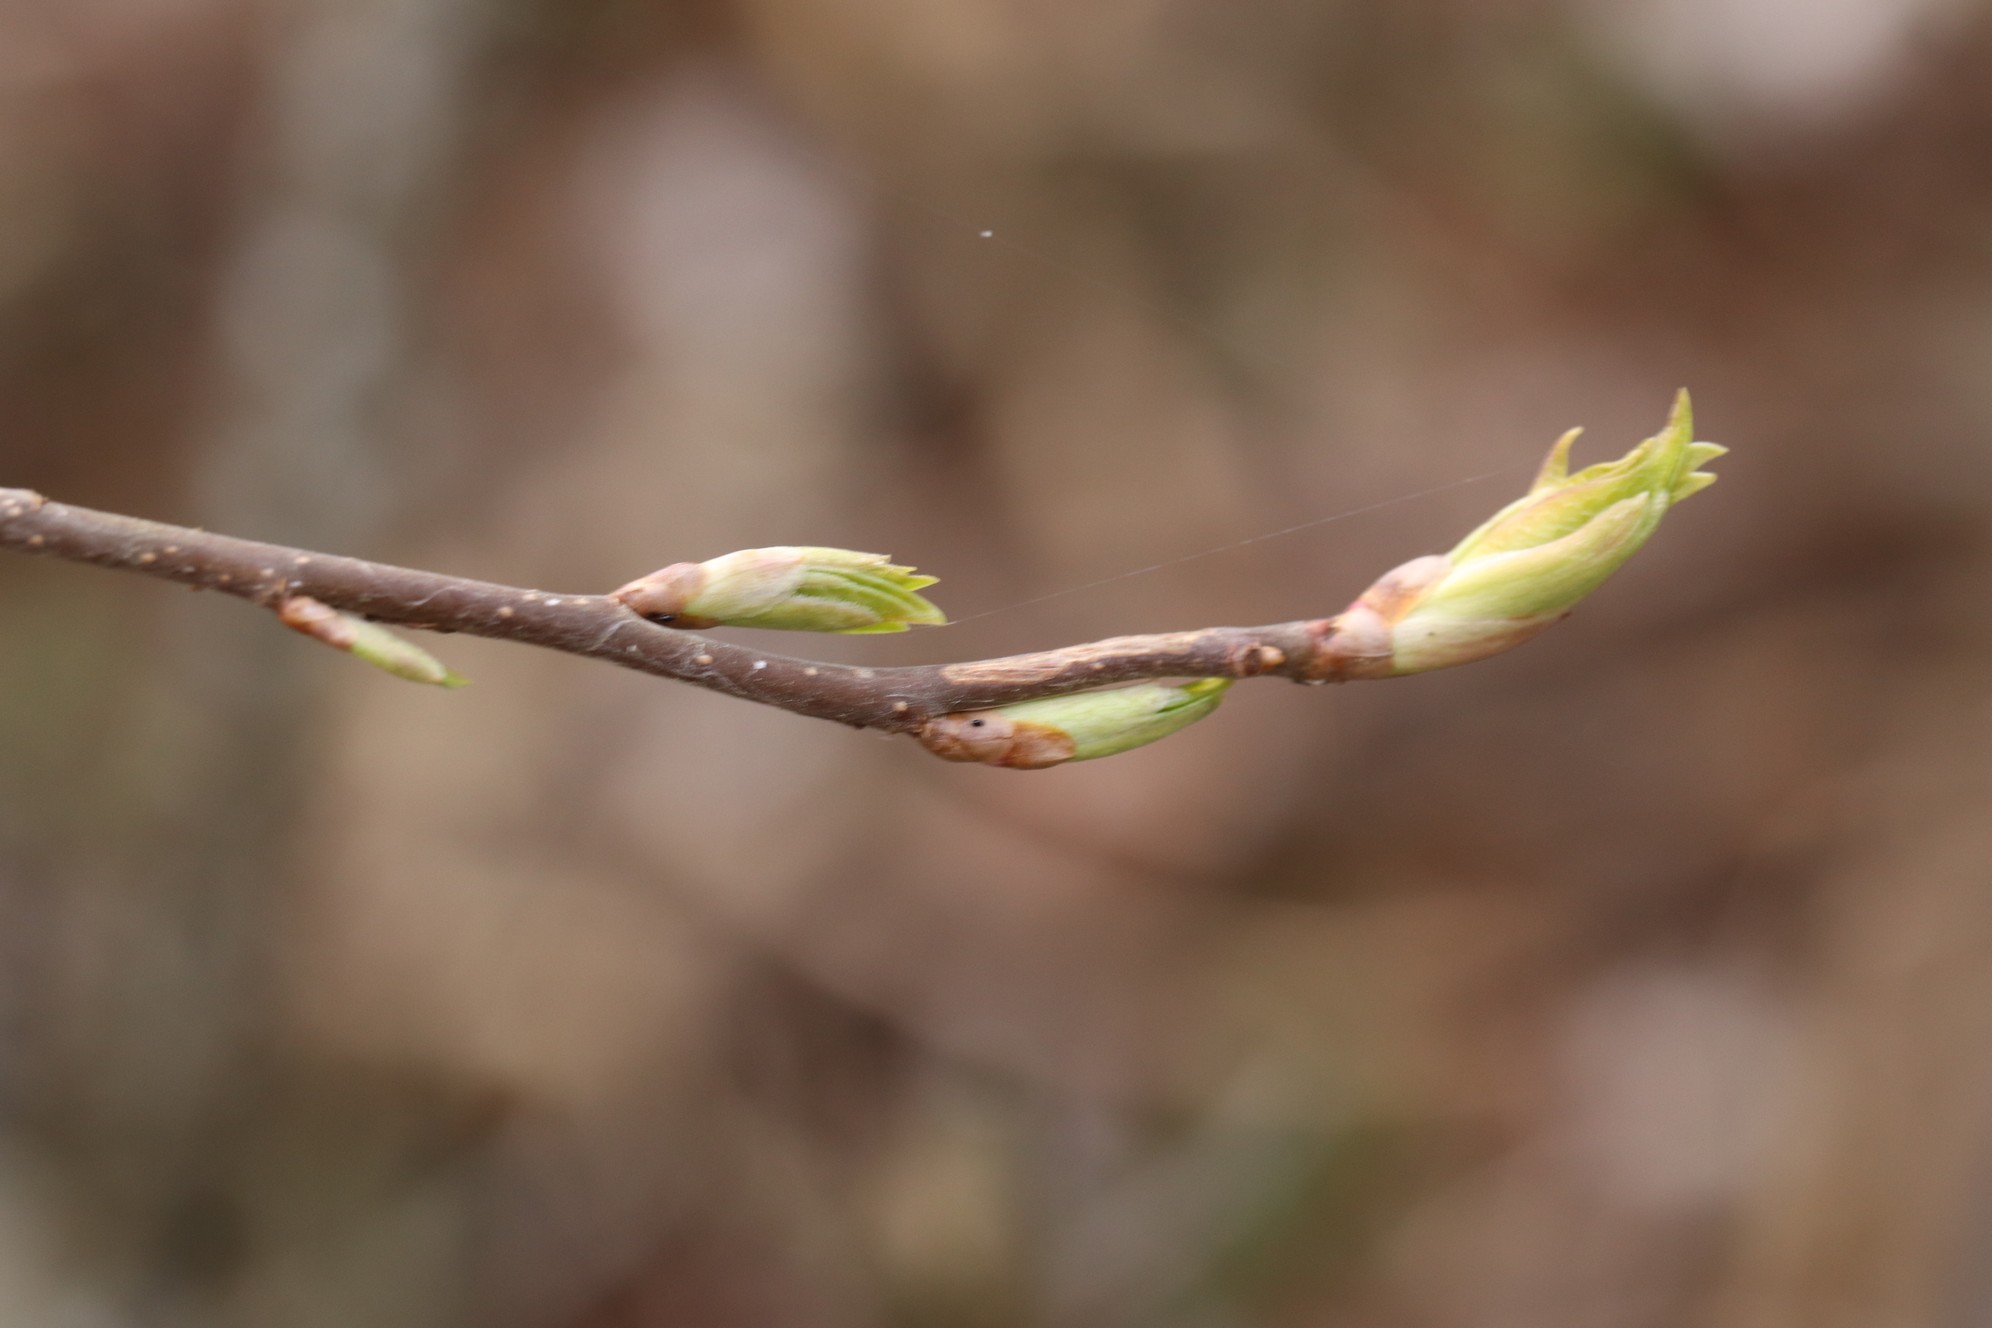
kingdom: Plantae
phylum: Tracheophyta
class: Magnoliopsida
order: Rosales
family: Rosaceae
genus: Prunus
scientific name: Prunus padus
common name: Bird cherry
